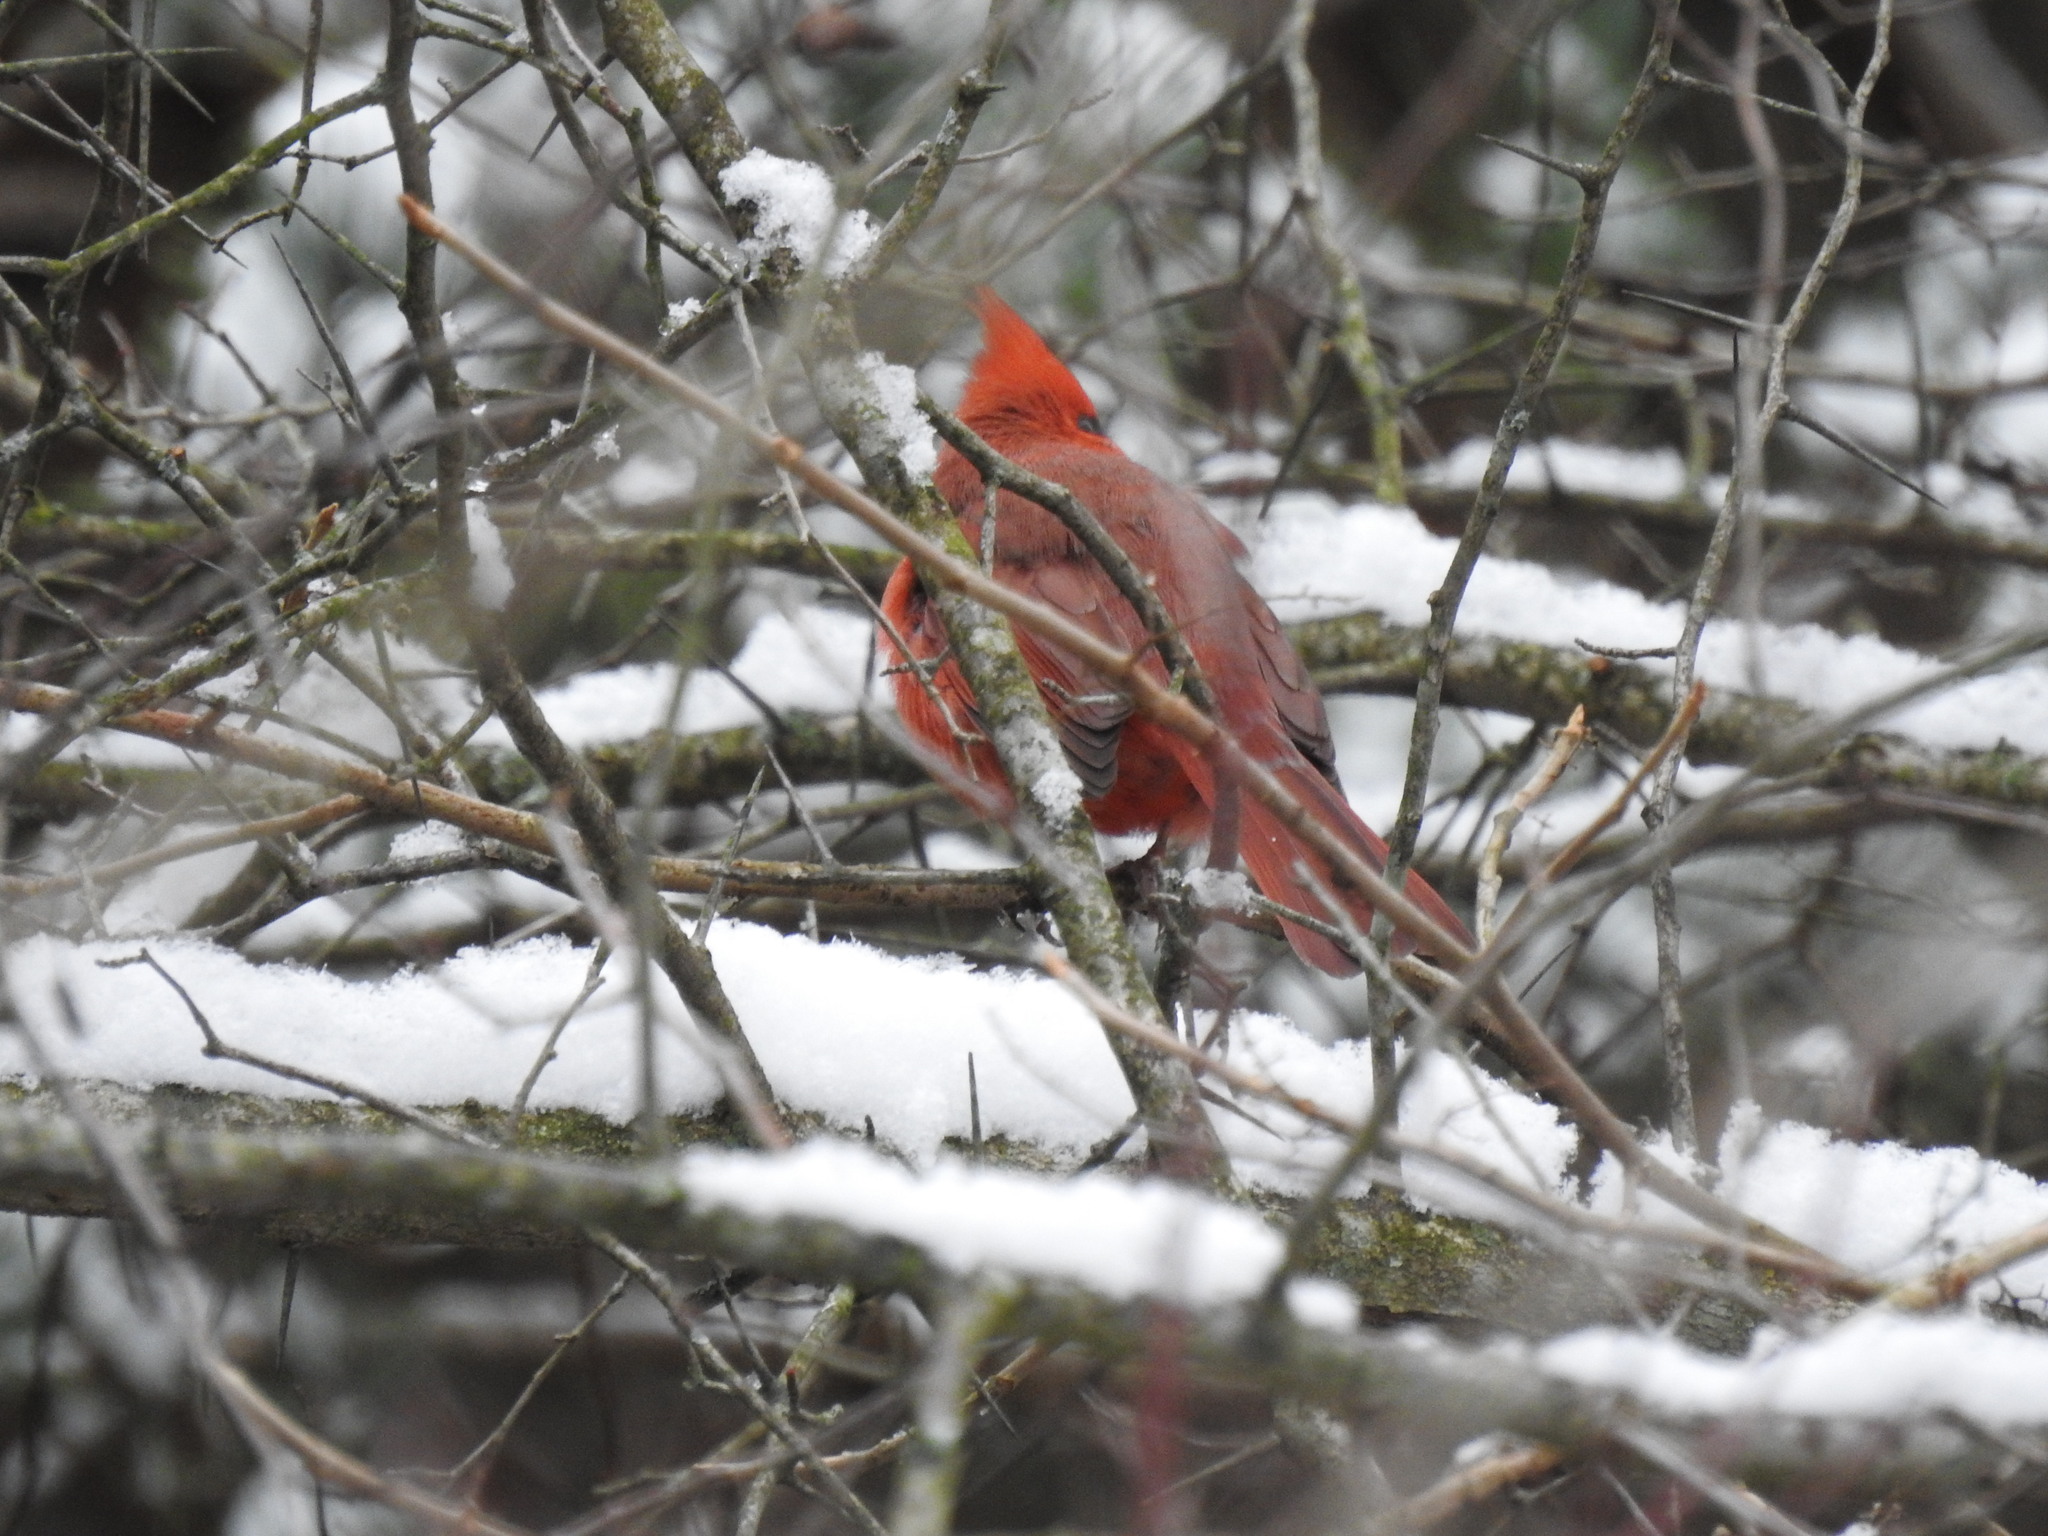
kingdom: Animalia
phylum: Chordata
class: Aves
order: Passeriformes
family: Cardinalidae
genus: Cardinalis
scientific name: Cardinalis cardinalis
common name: Northern cardinal
